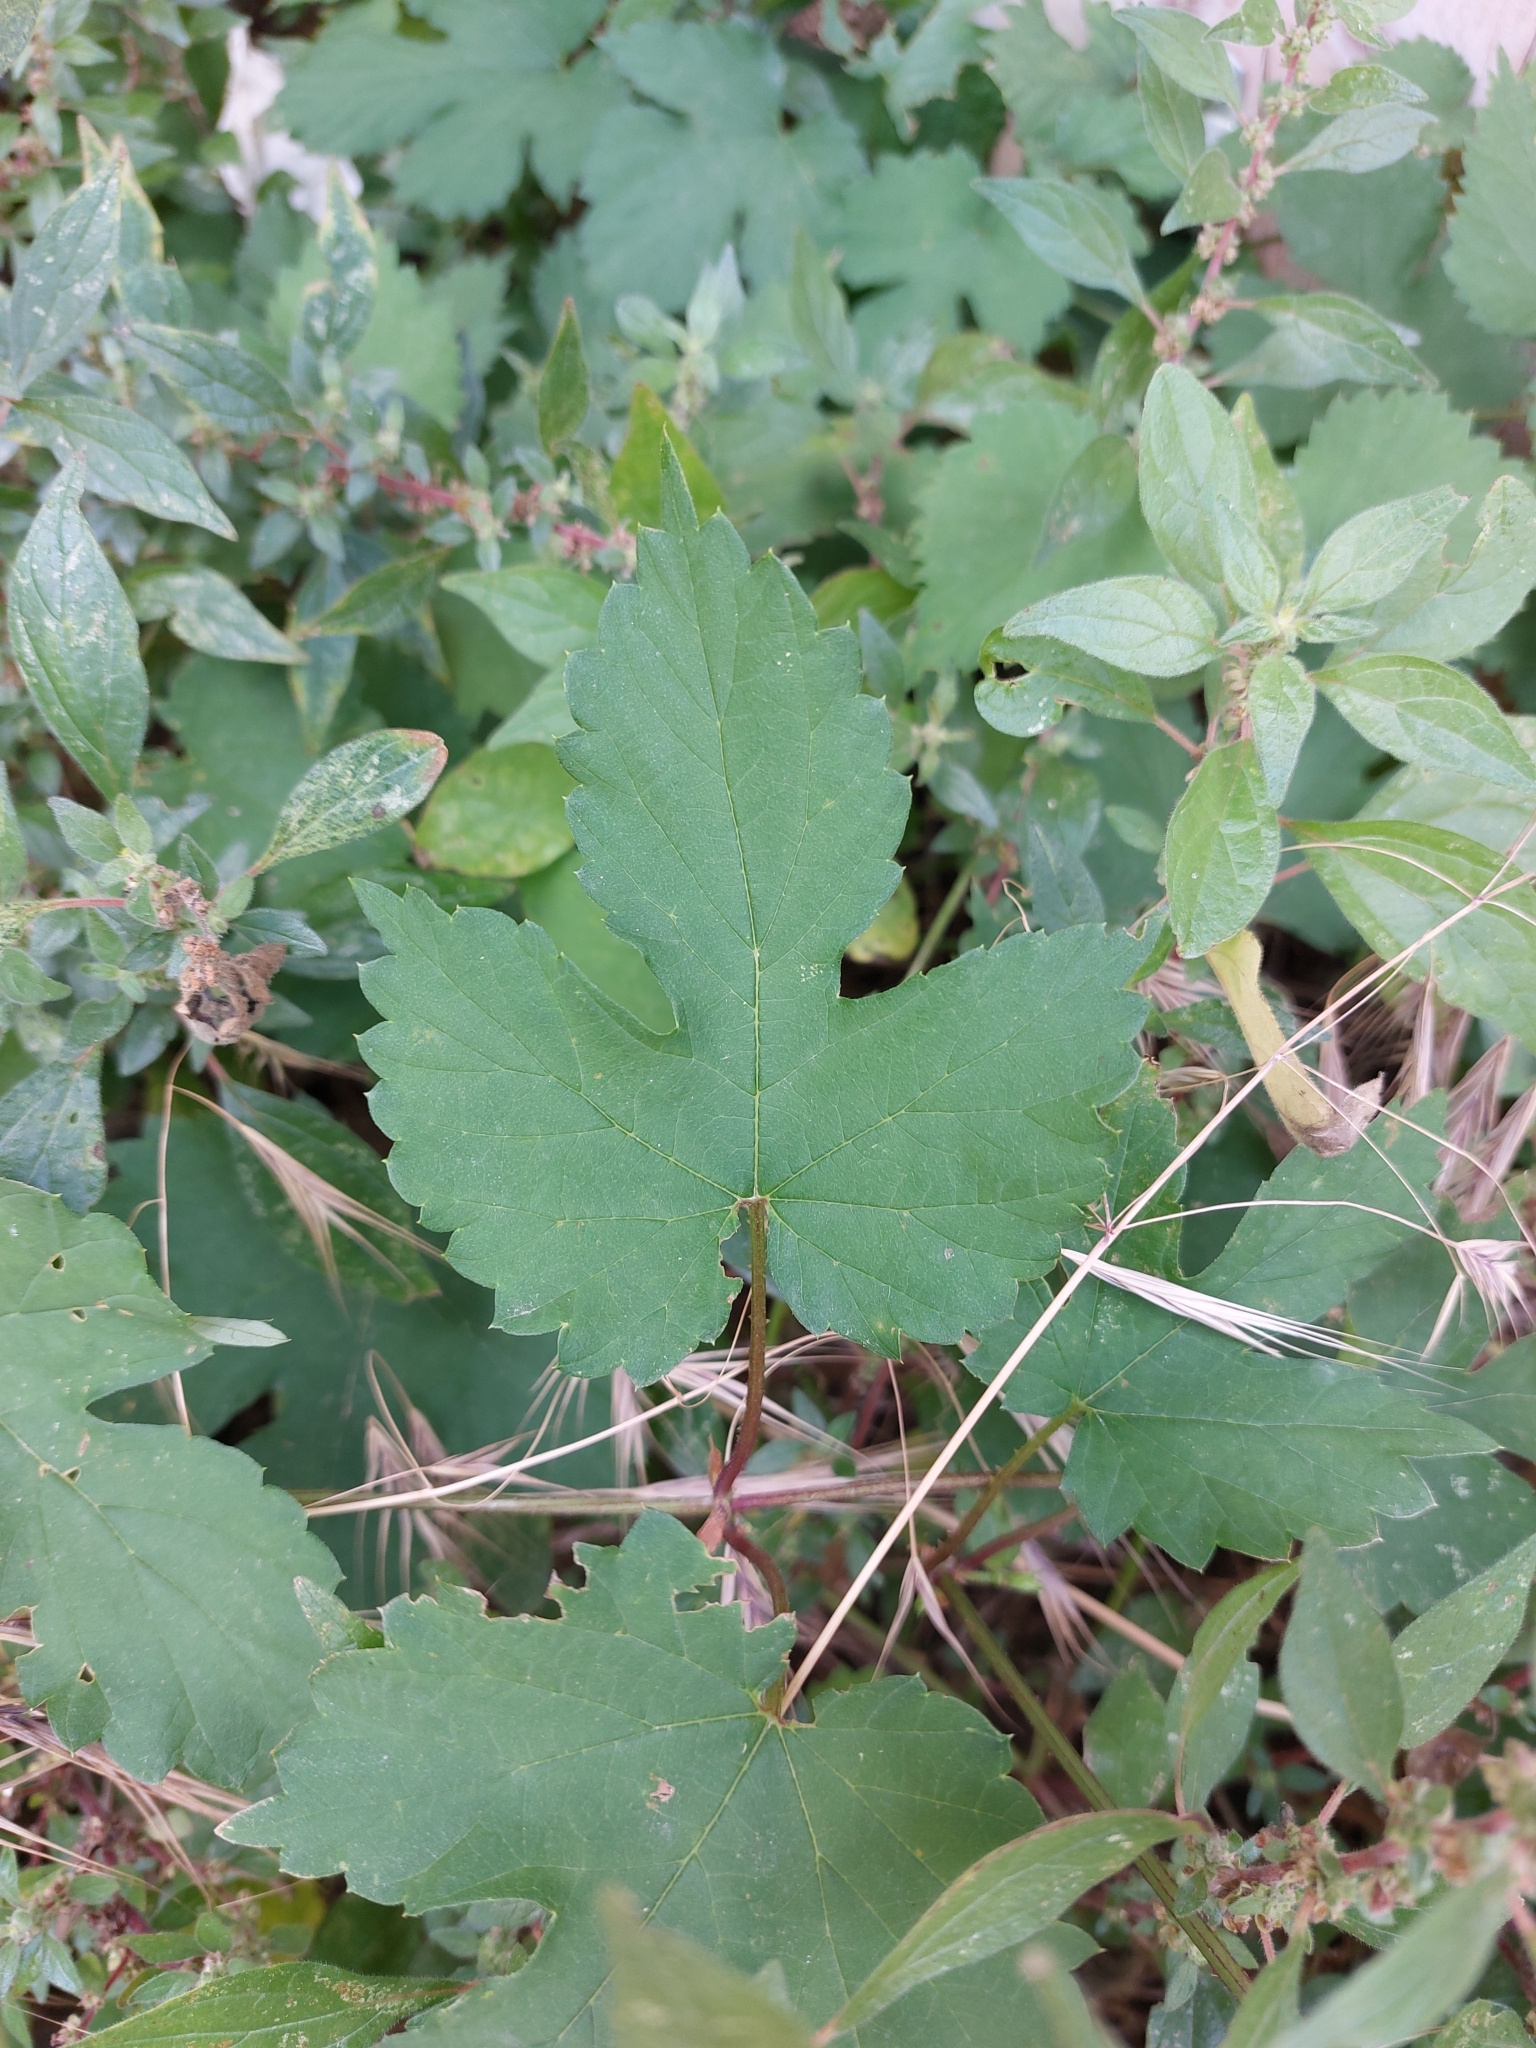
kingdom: Plantae
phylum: Tracheophyta
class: Magnoliopsida
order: Rosales
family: Cannabaceae
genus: Humulus
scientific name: Humulus lupulus
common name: Hop
